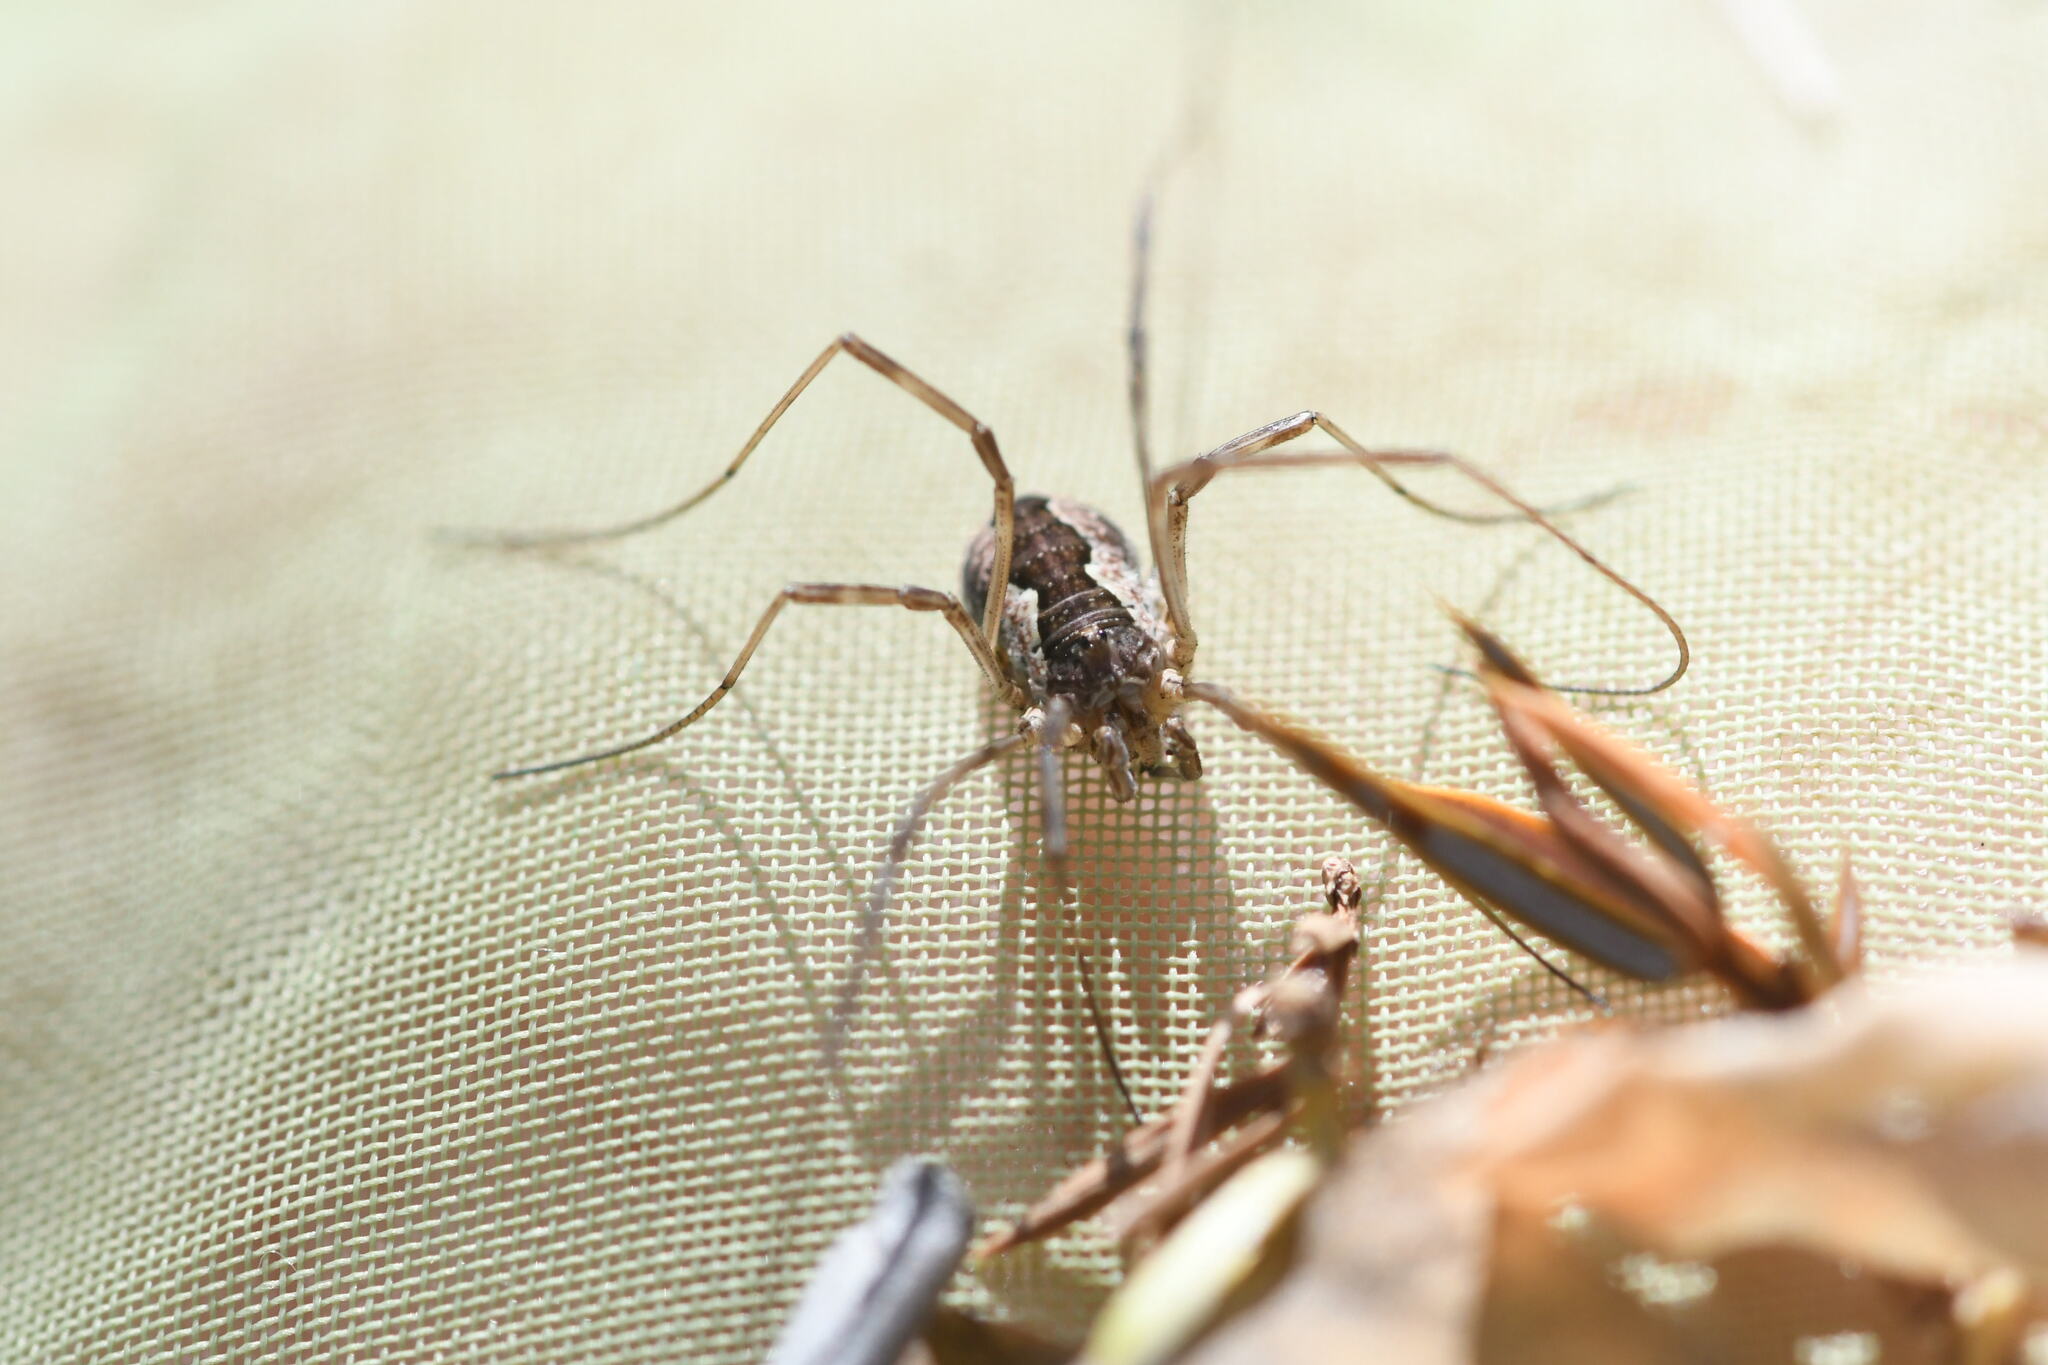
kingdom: Animalia
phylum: Arthropoda
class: Arachnida
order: Opiliones
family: Phalangiidae
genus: Mitopus
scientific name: Mitopus morio
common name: Saddleback harvestman
